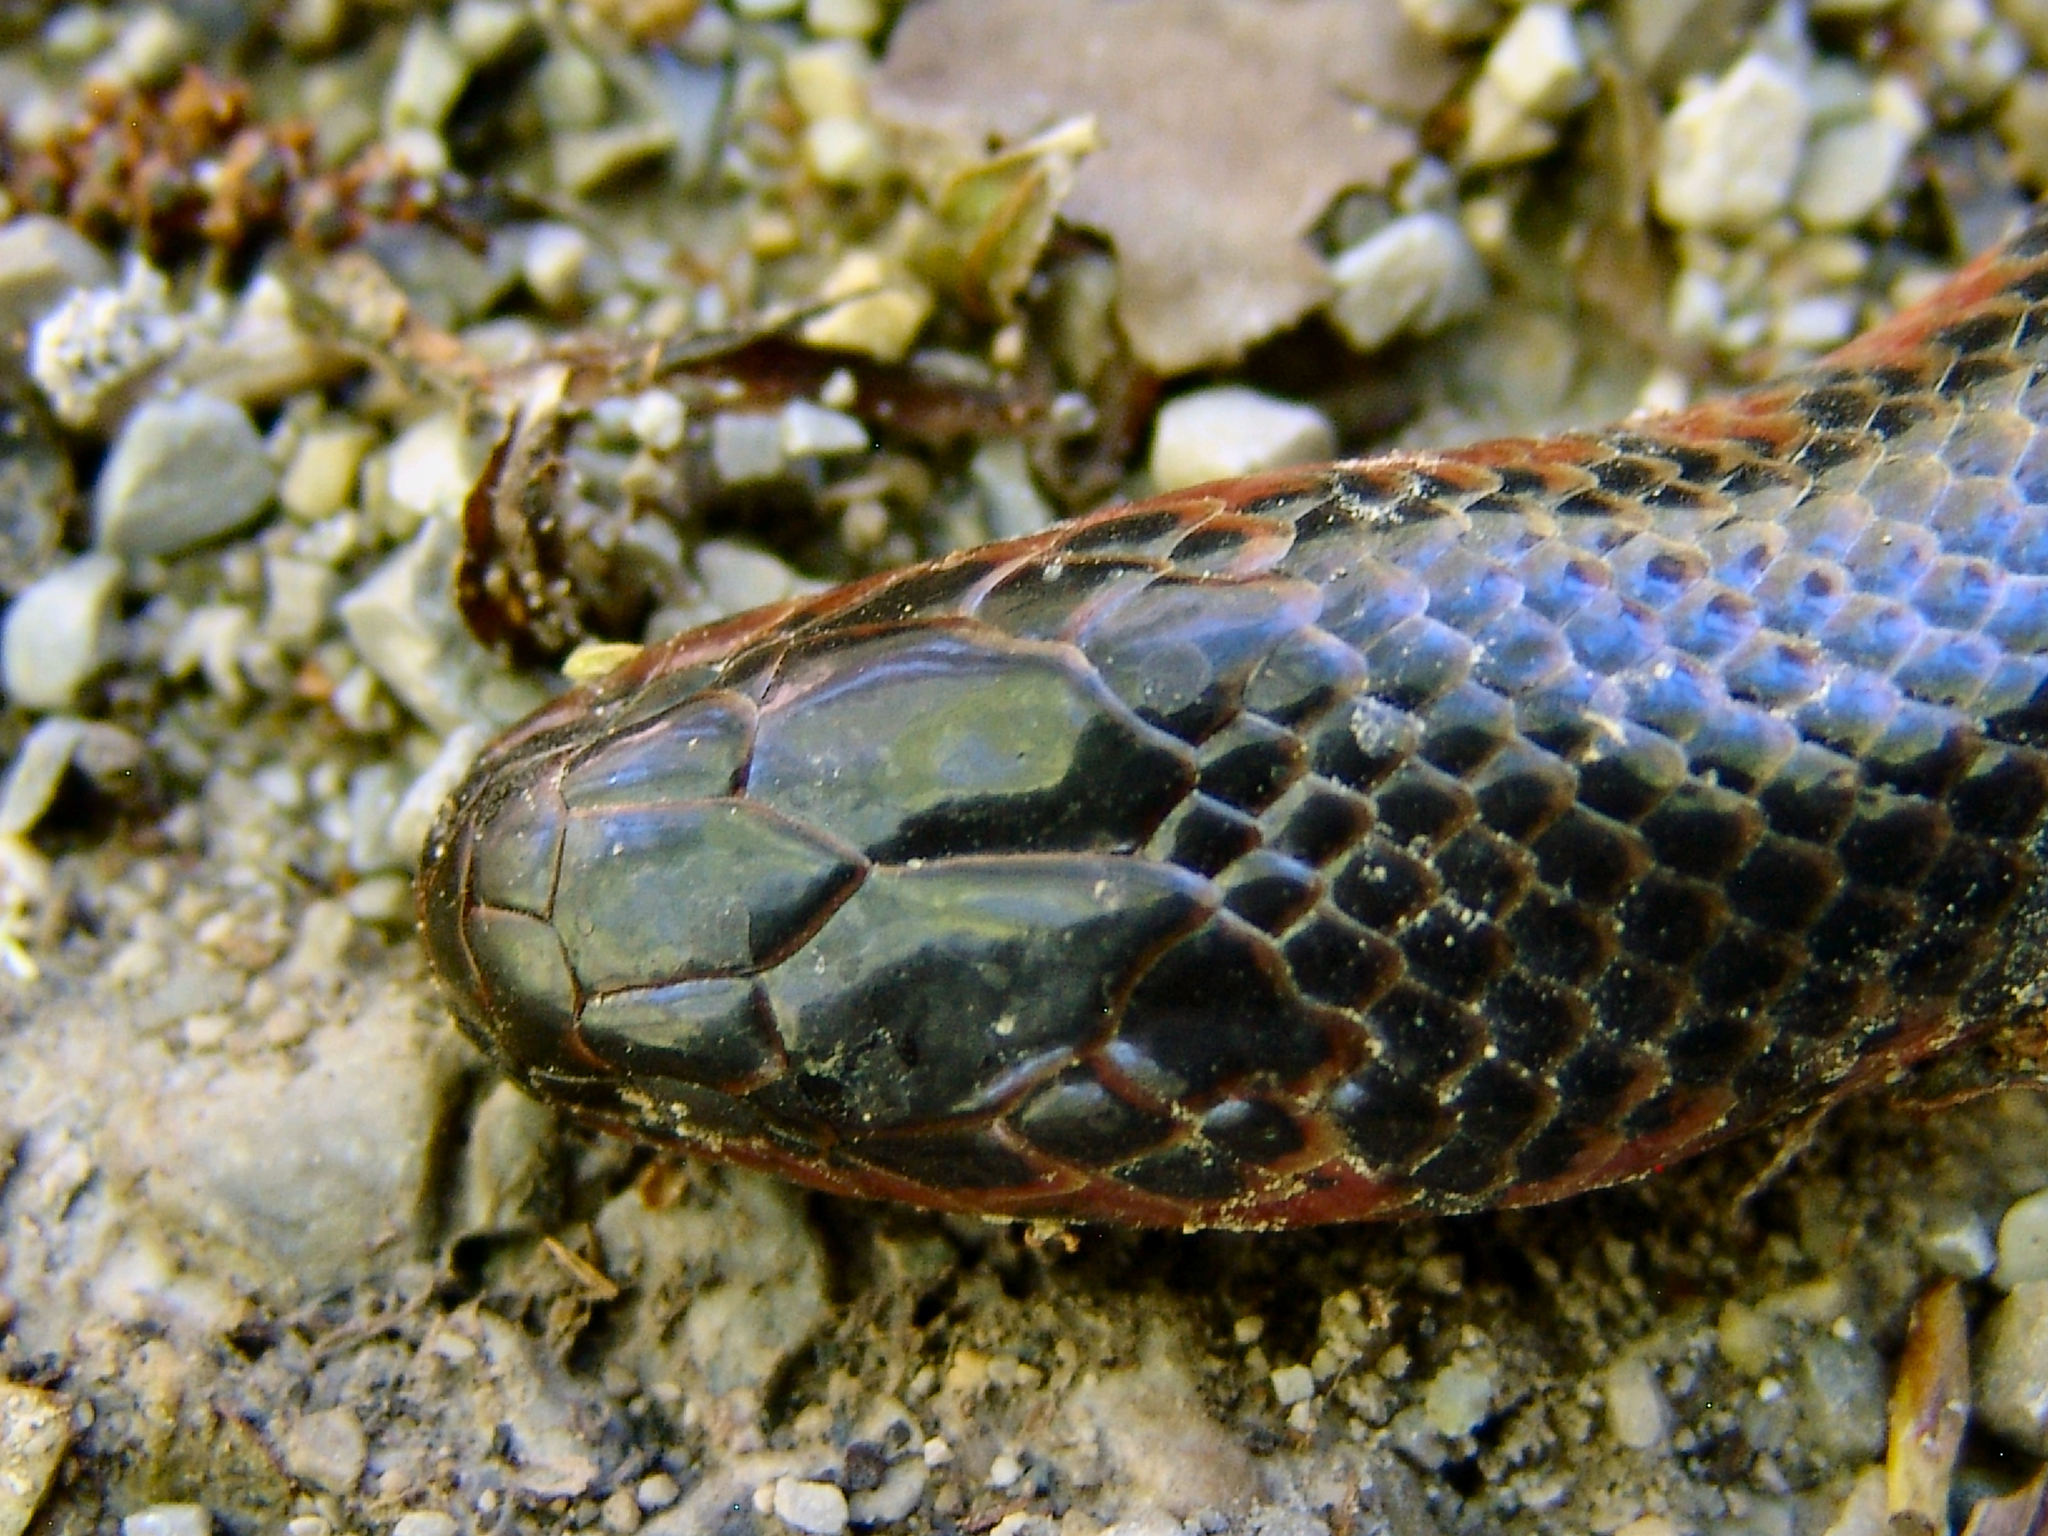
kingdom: Animalia
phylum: Chordata
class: Squamata
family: Colubridae
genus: Farancia
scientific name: Farancia abacura
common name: Mud snake
